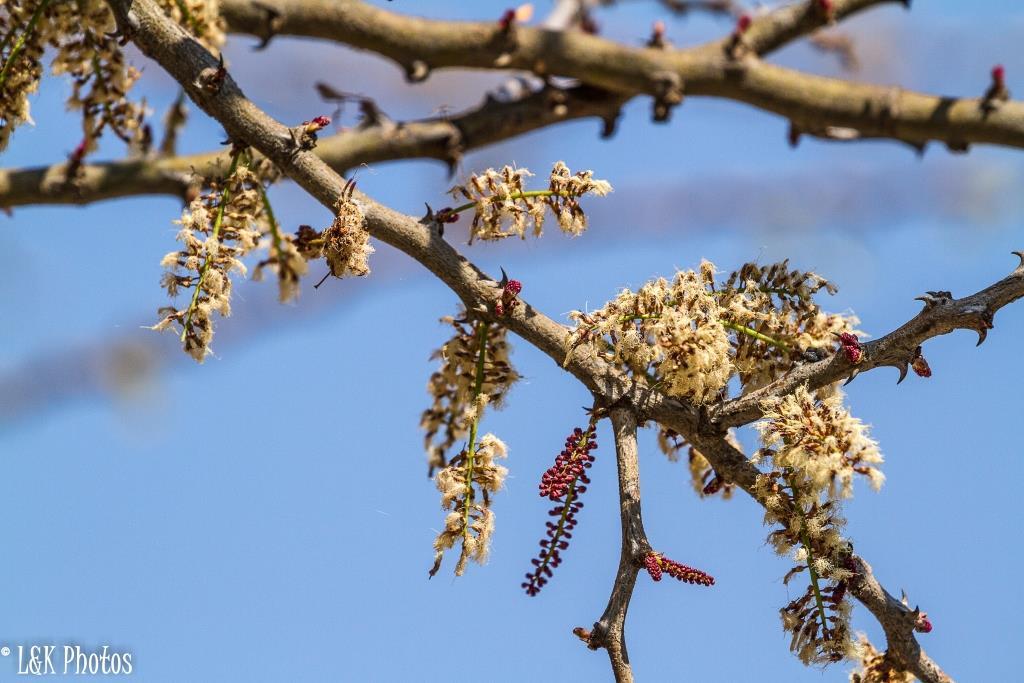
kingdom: Plantae
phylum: Tracheophyta
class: Magnoliopsida
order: Fabales
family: Fabaceae
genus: Senegalia
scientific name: Senegalia mellifera
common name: Hookthorn
